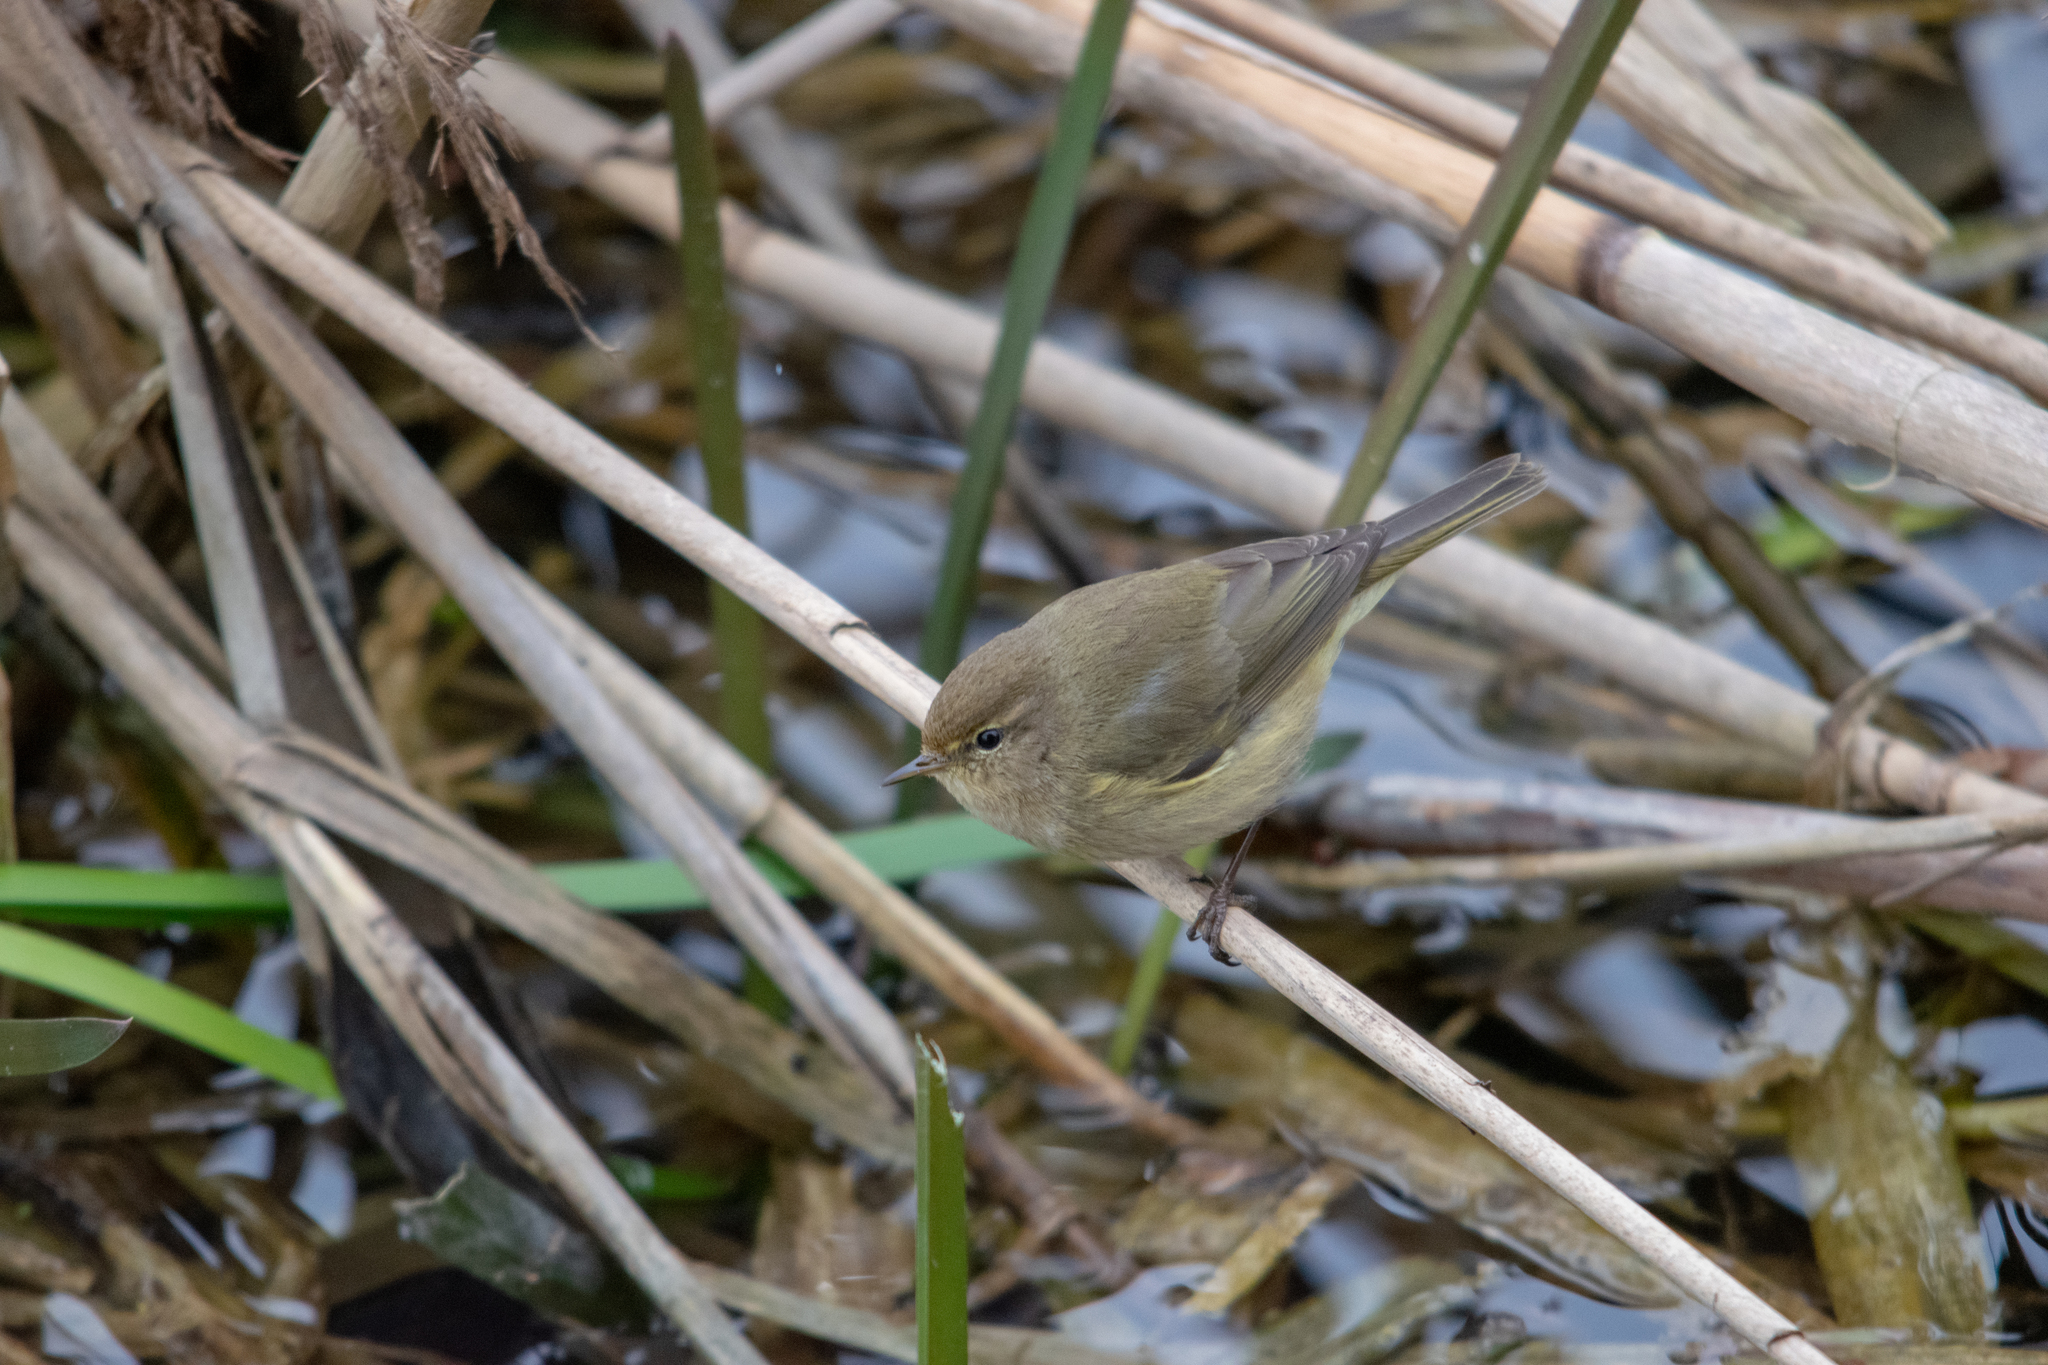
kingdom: Animalia
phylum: Chordata
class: Aves
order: Passeriformes
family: Phylloscopidae
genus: Phylloscopus
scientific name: Phylloscopus collybita
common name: Common chiffchaff
